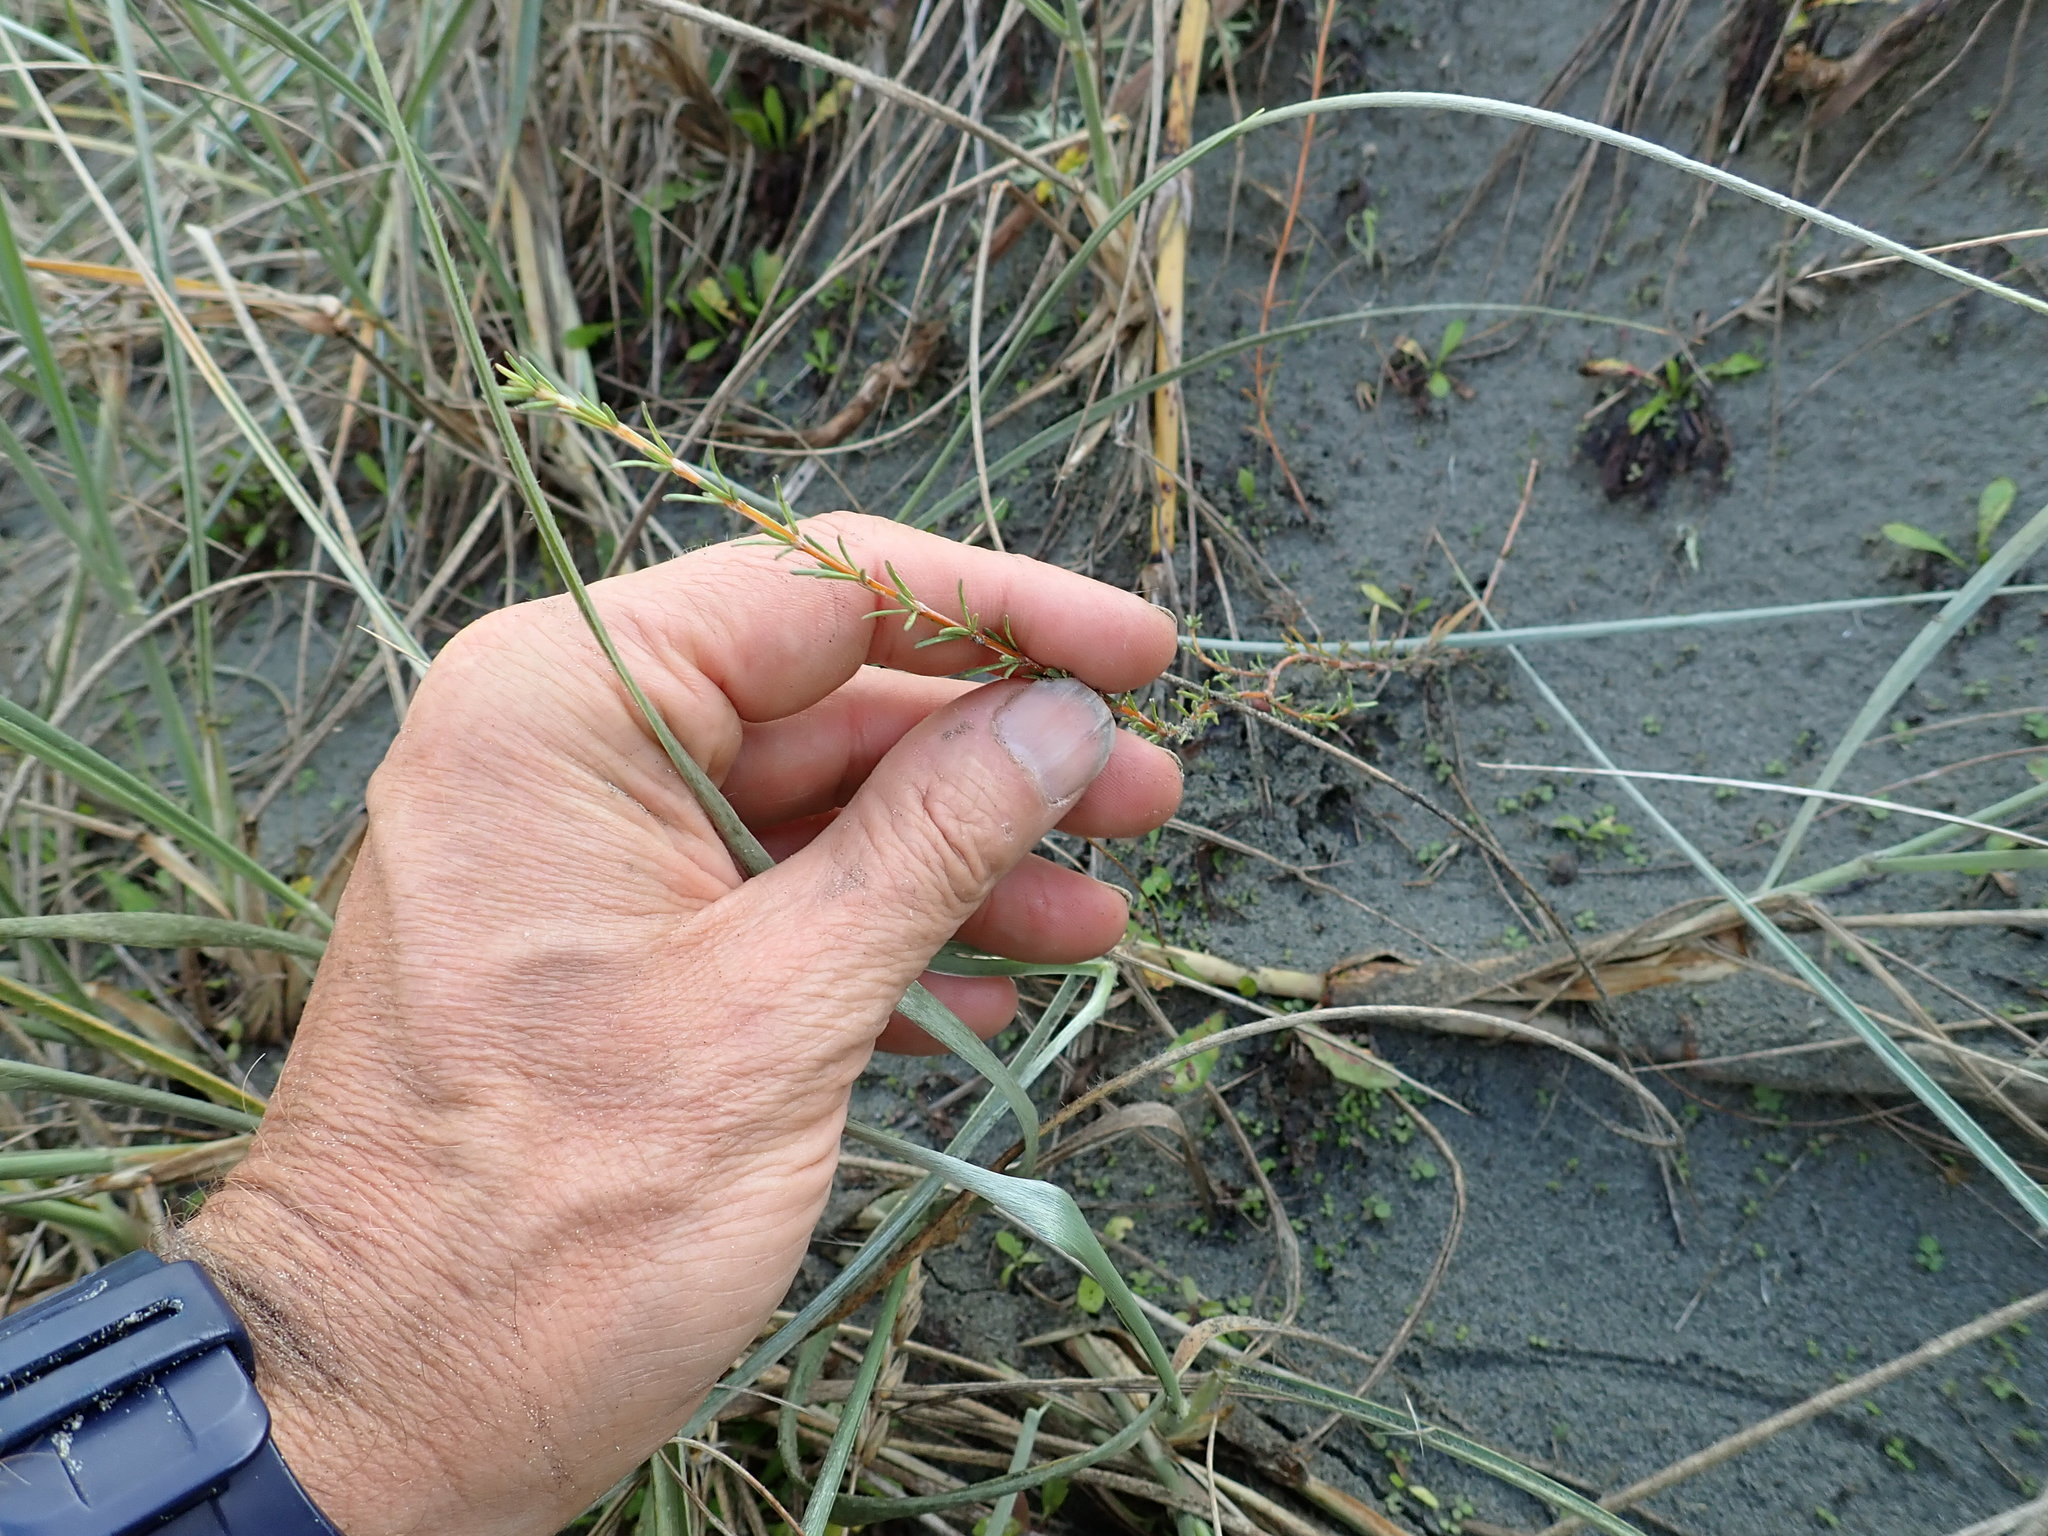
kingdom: Plantae
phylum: Tracheophyta
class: Magnoliopsida
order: Gentianales
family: Rubiaceae
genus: Coprosma
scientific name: Coprosma acerosa
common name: Sand coprosma
